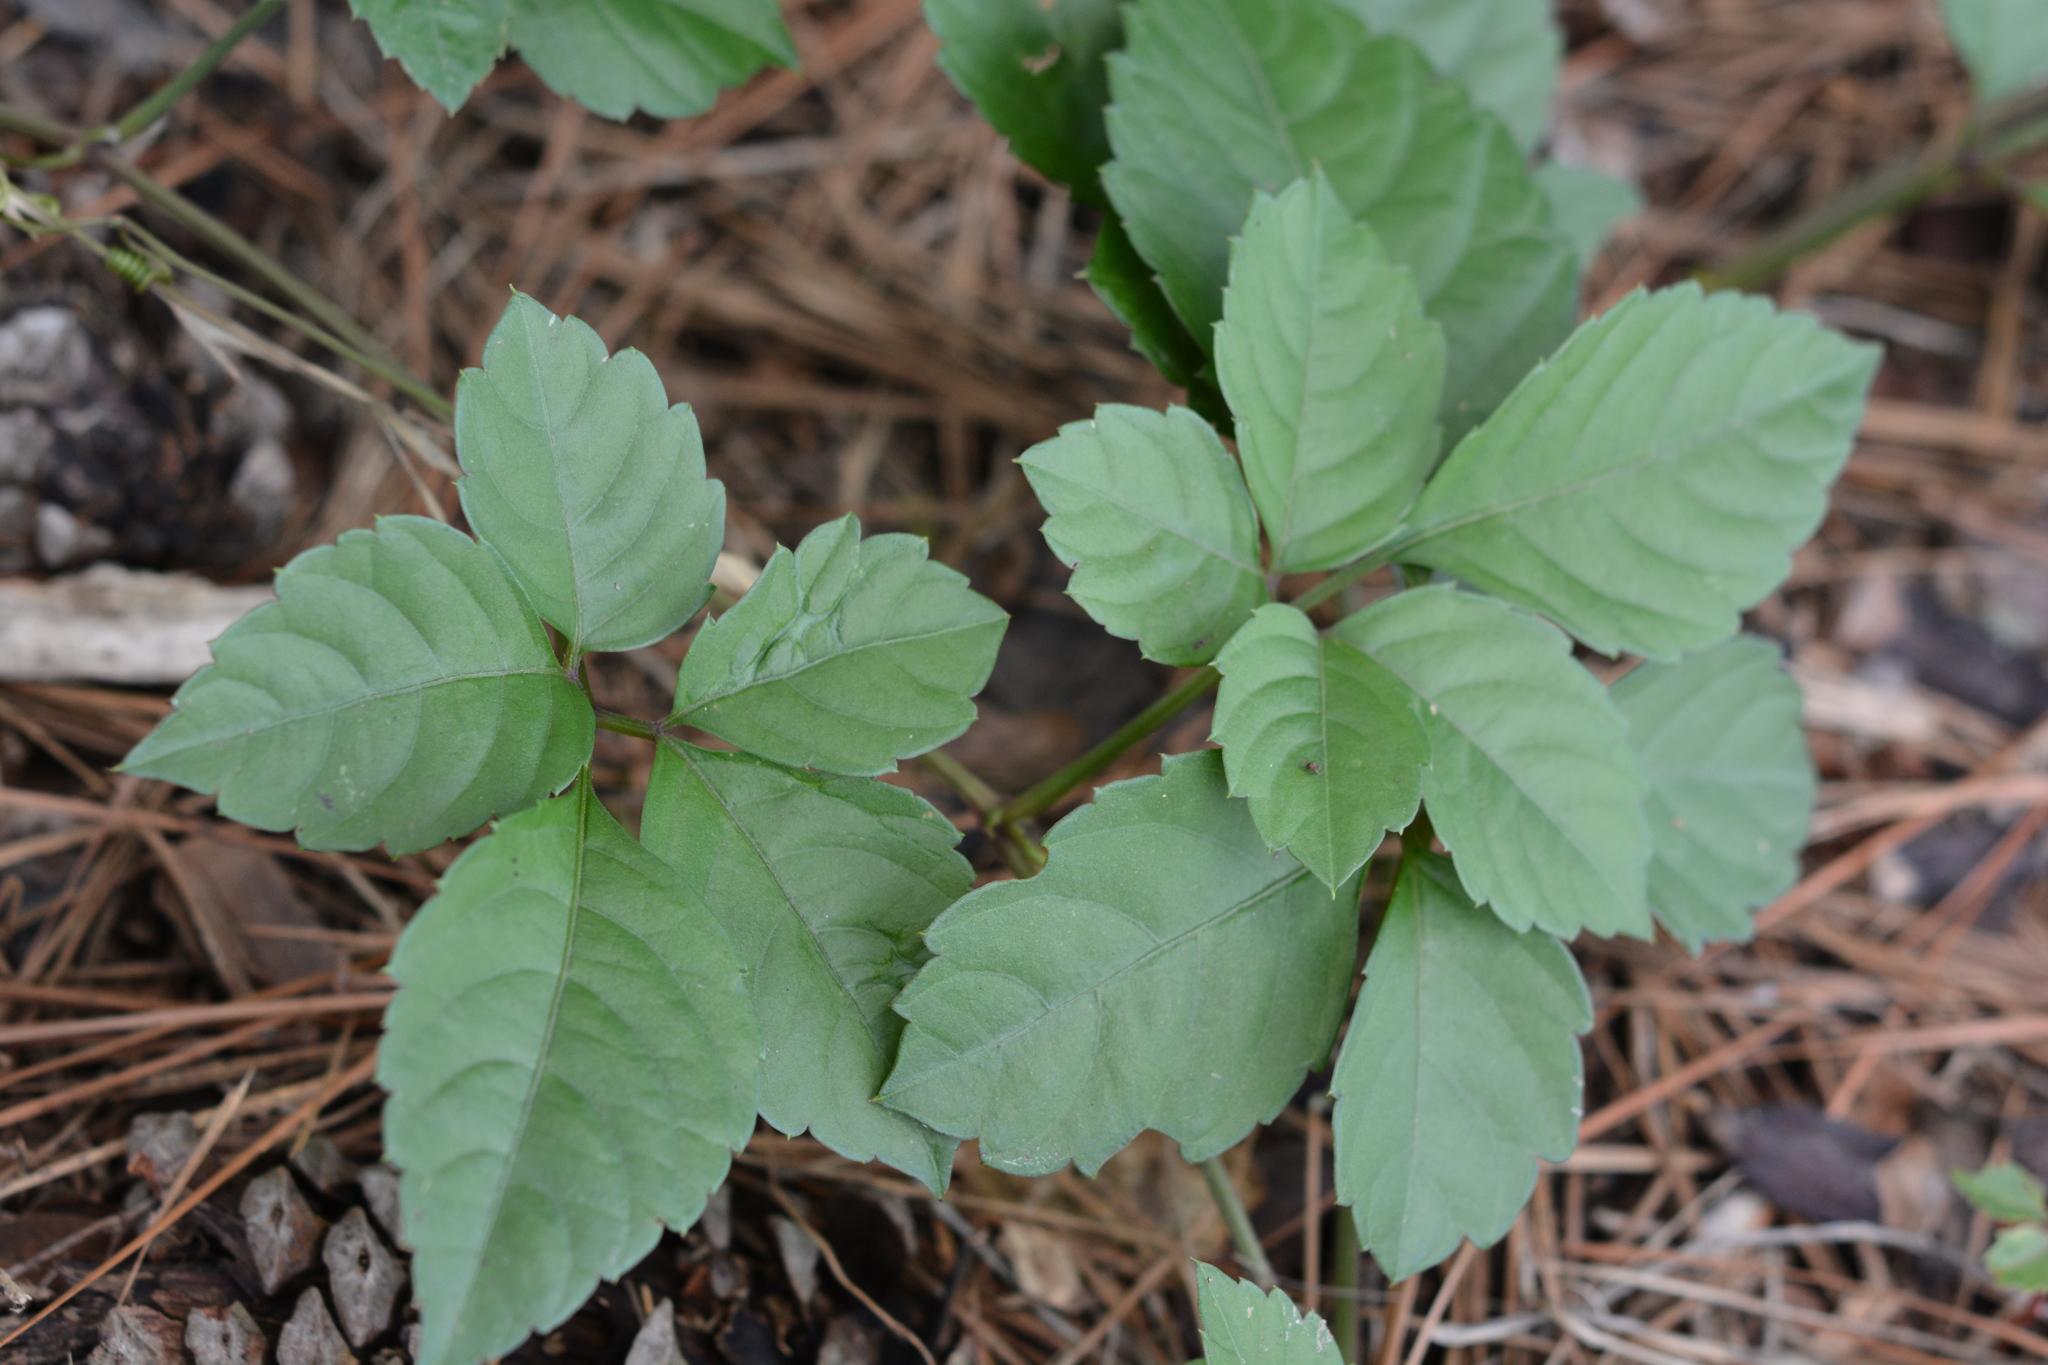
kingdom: Plantae
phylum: Tracheophyta
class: Magnoliopsida
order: Vitales
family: Vitaceae
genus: Causonis
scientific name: Causonis japonica
